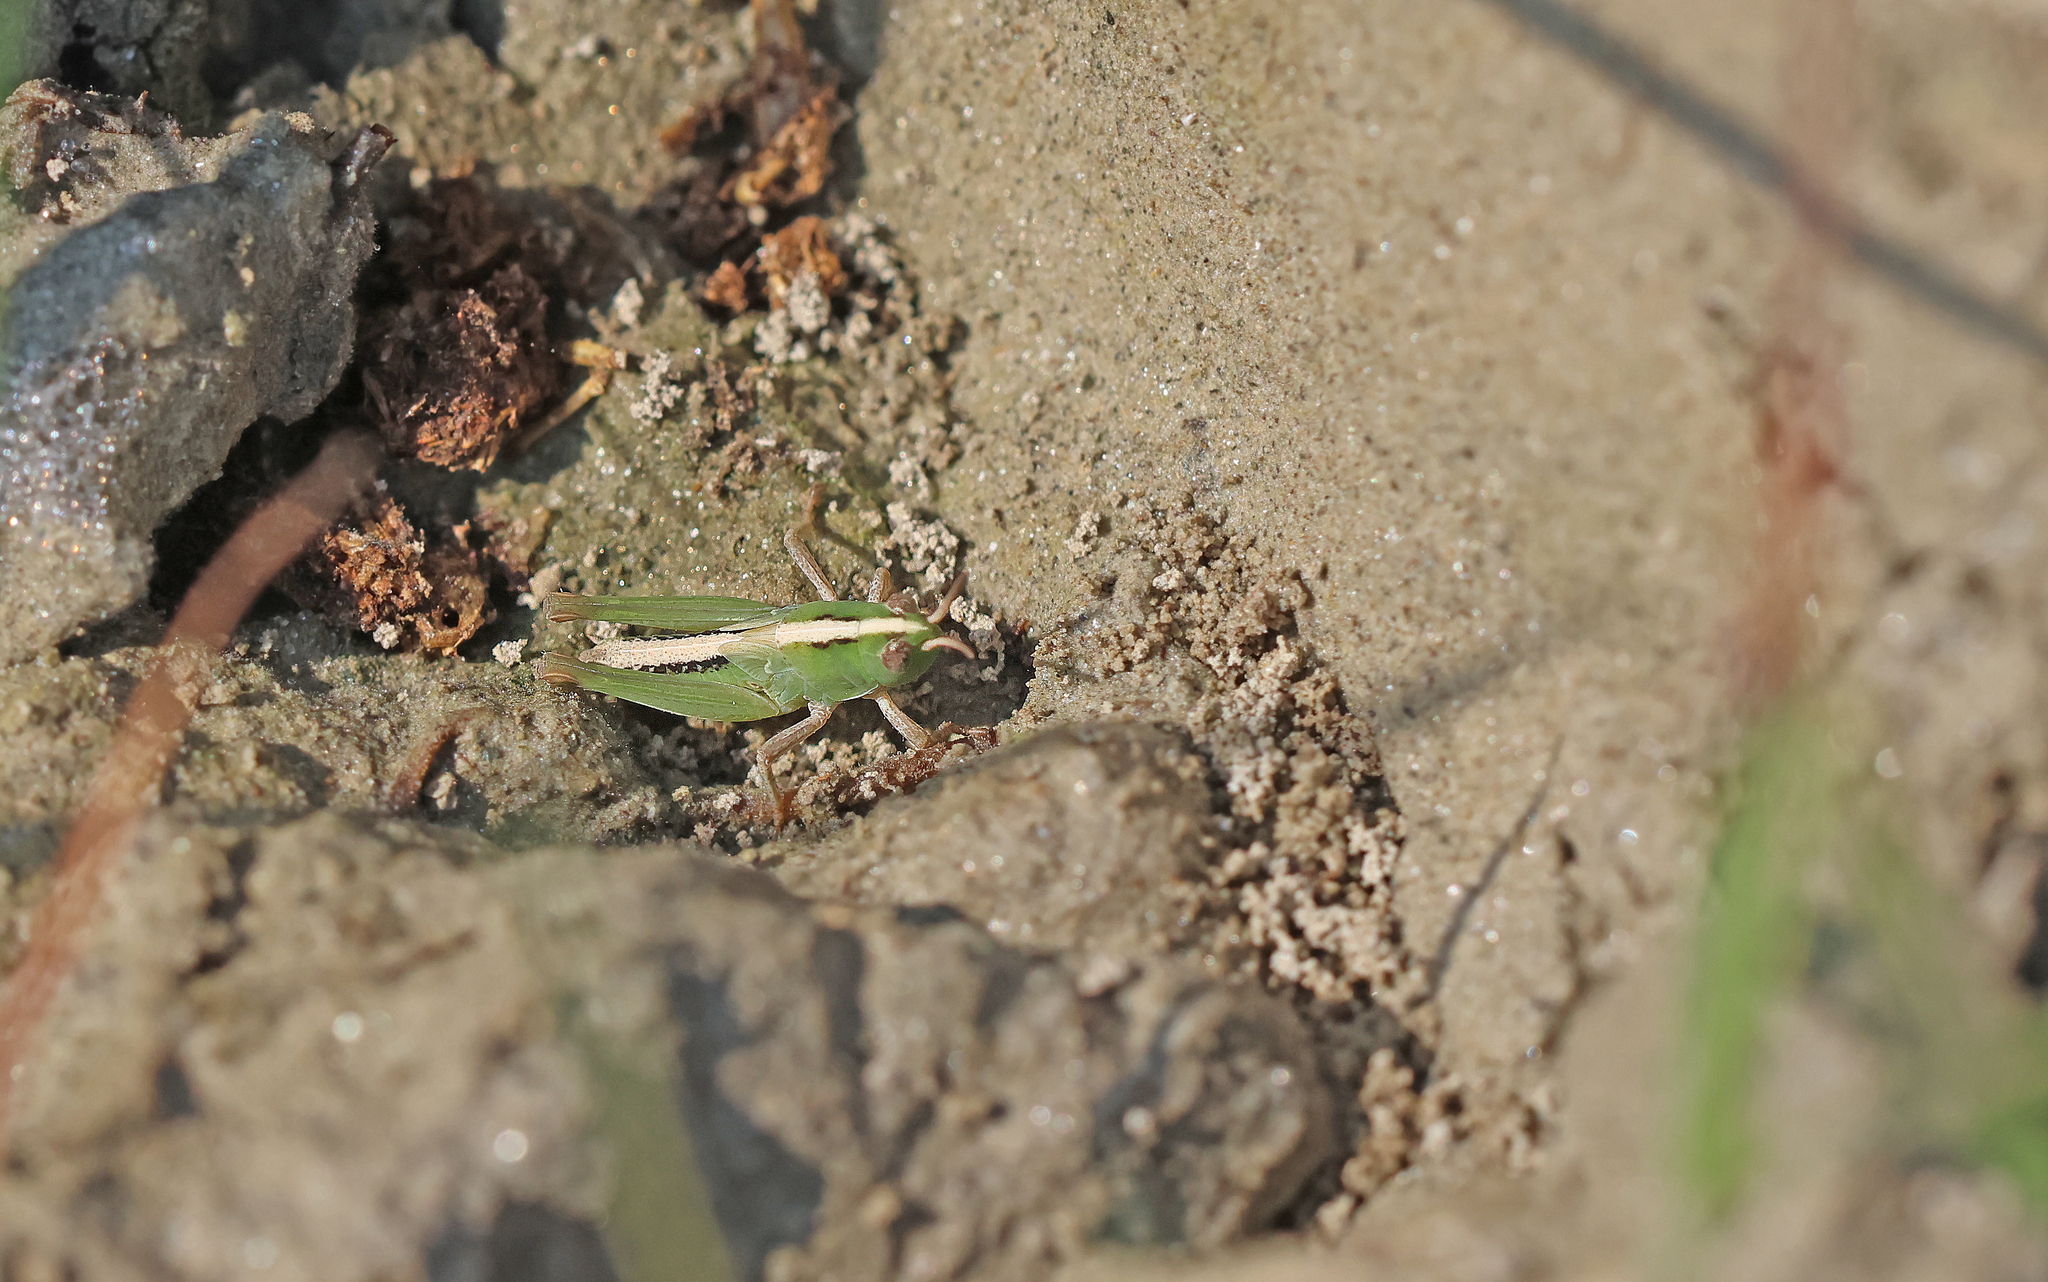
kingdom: Animalia
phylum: Arthropoda
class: Insecta
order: Orthoptera
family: Acrididae
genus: Aiolopus
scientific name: Aiolopus thalassinus
